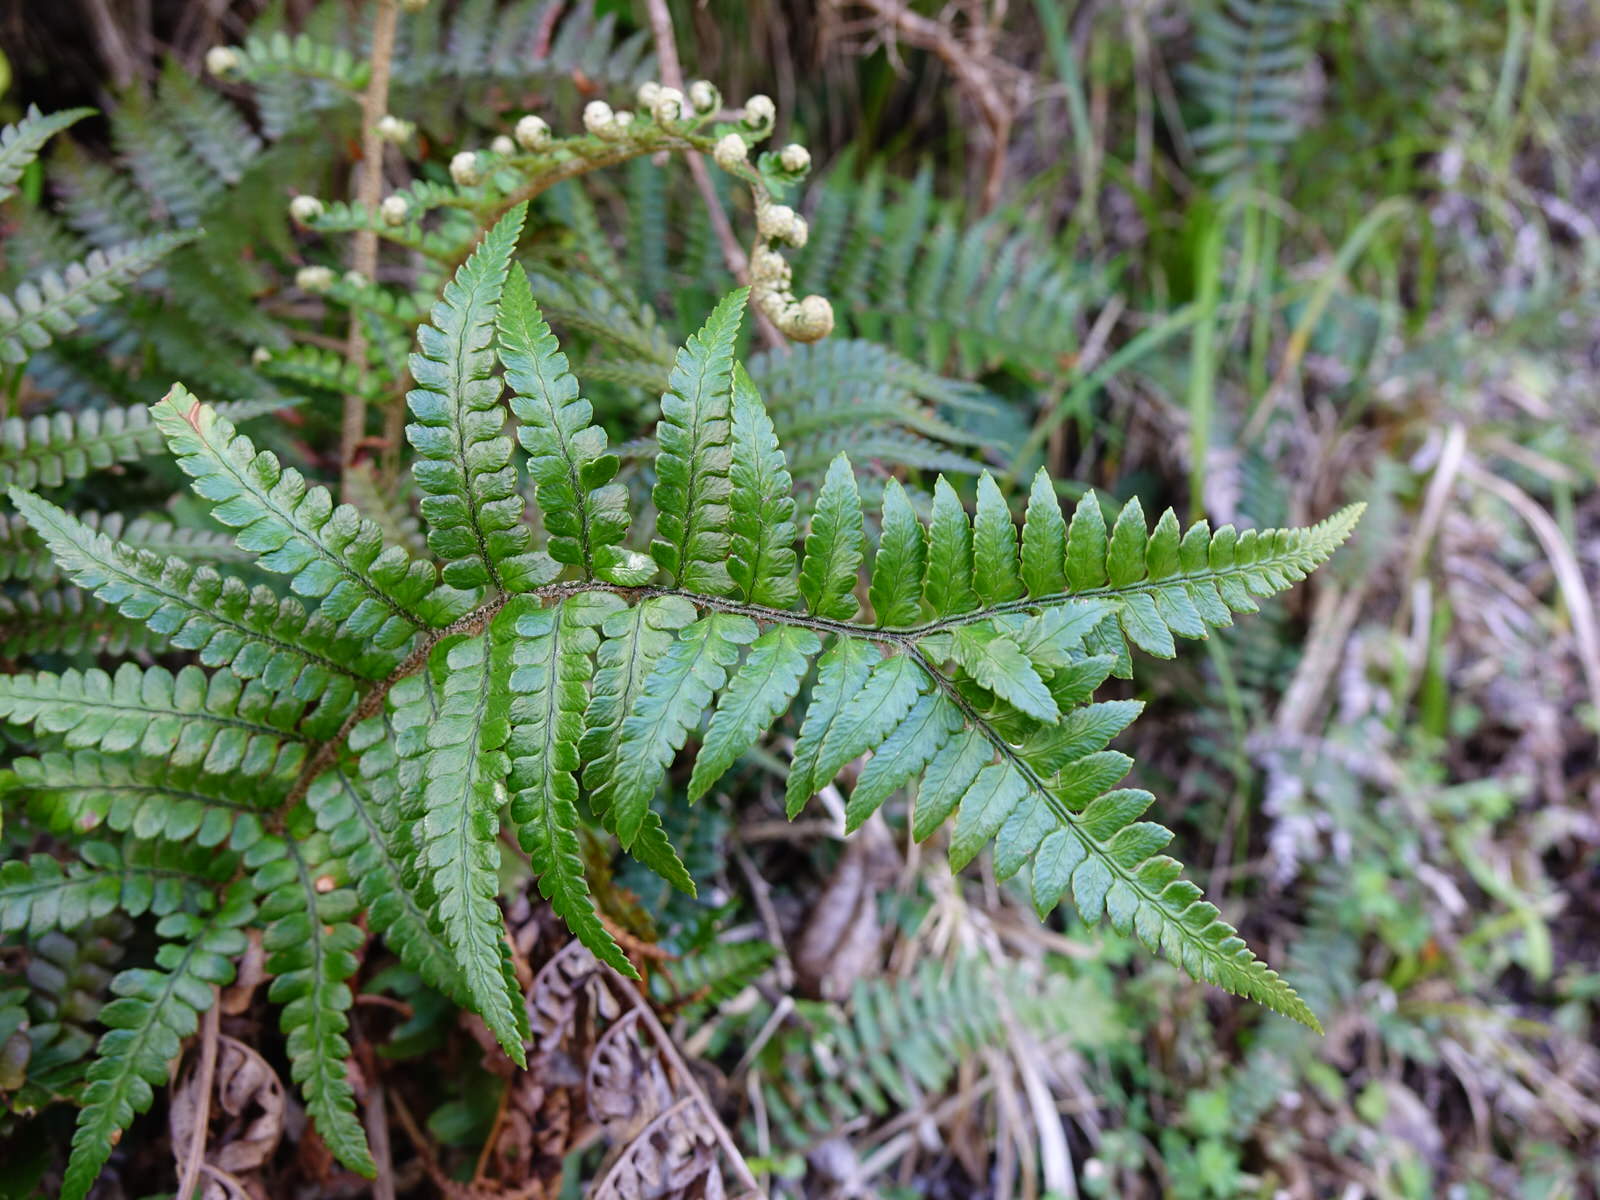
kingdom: Plantae
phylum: Tracheophyta
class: Polypodiopsida
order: Polypodiales
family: Dryopteridaceae
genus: Polystichum
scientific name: Polystichum wawranum
